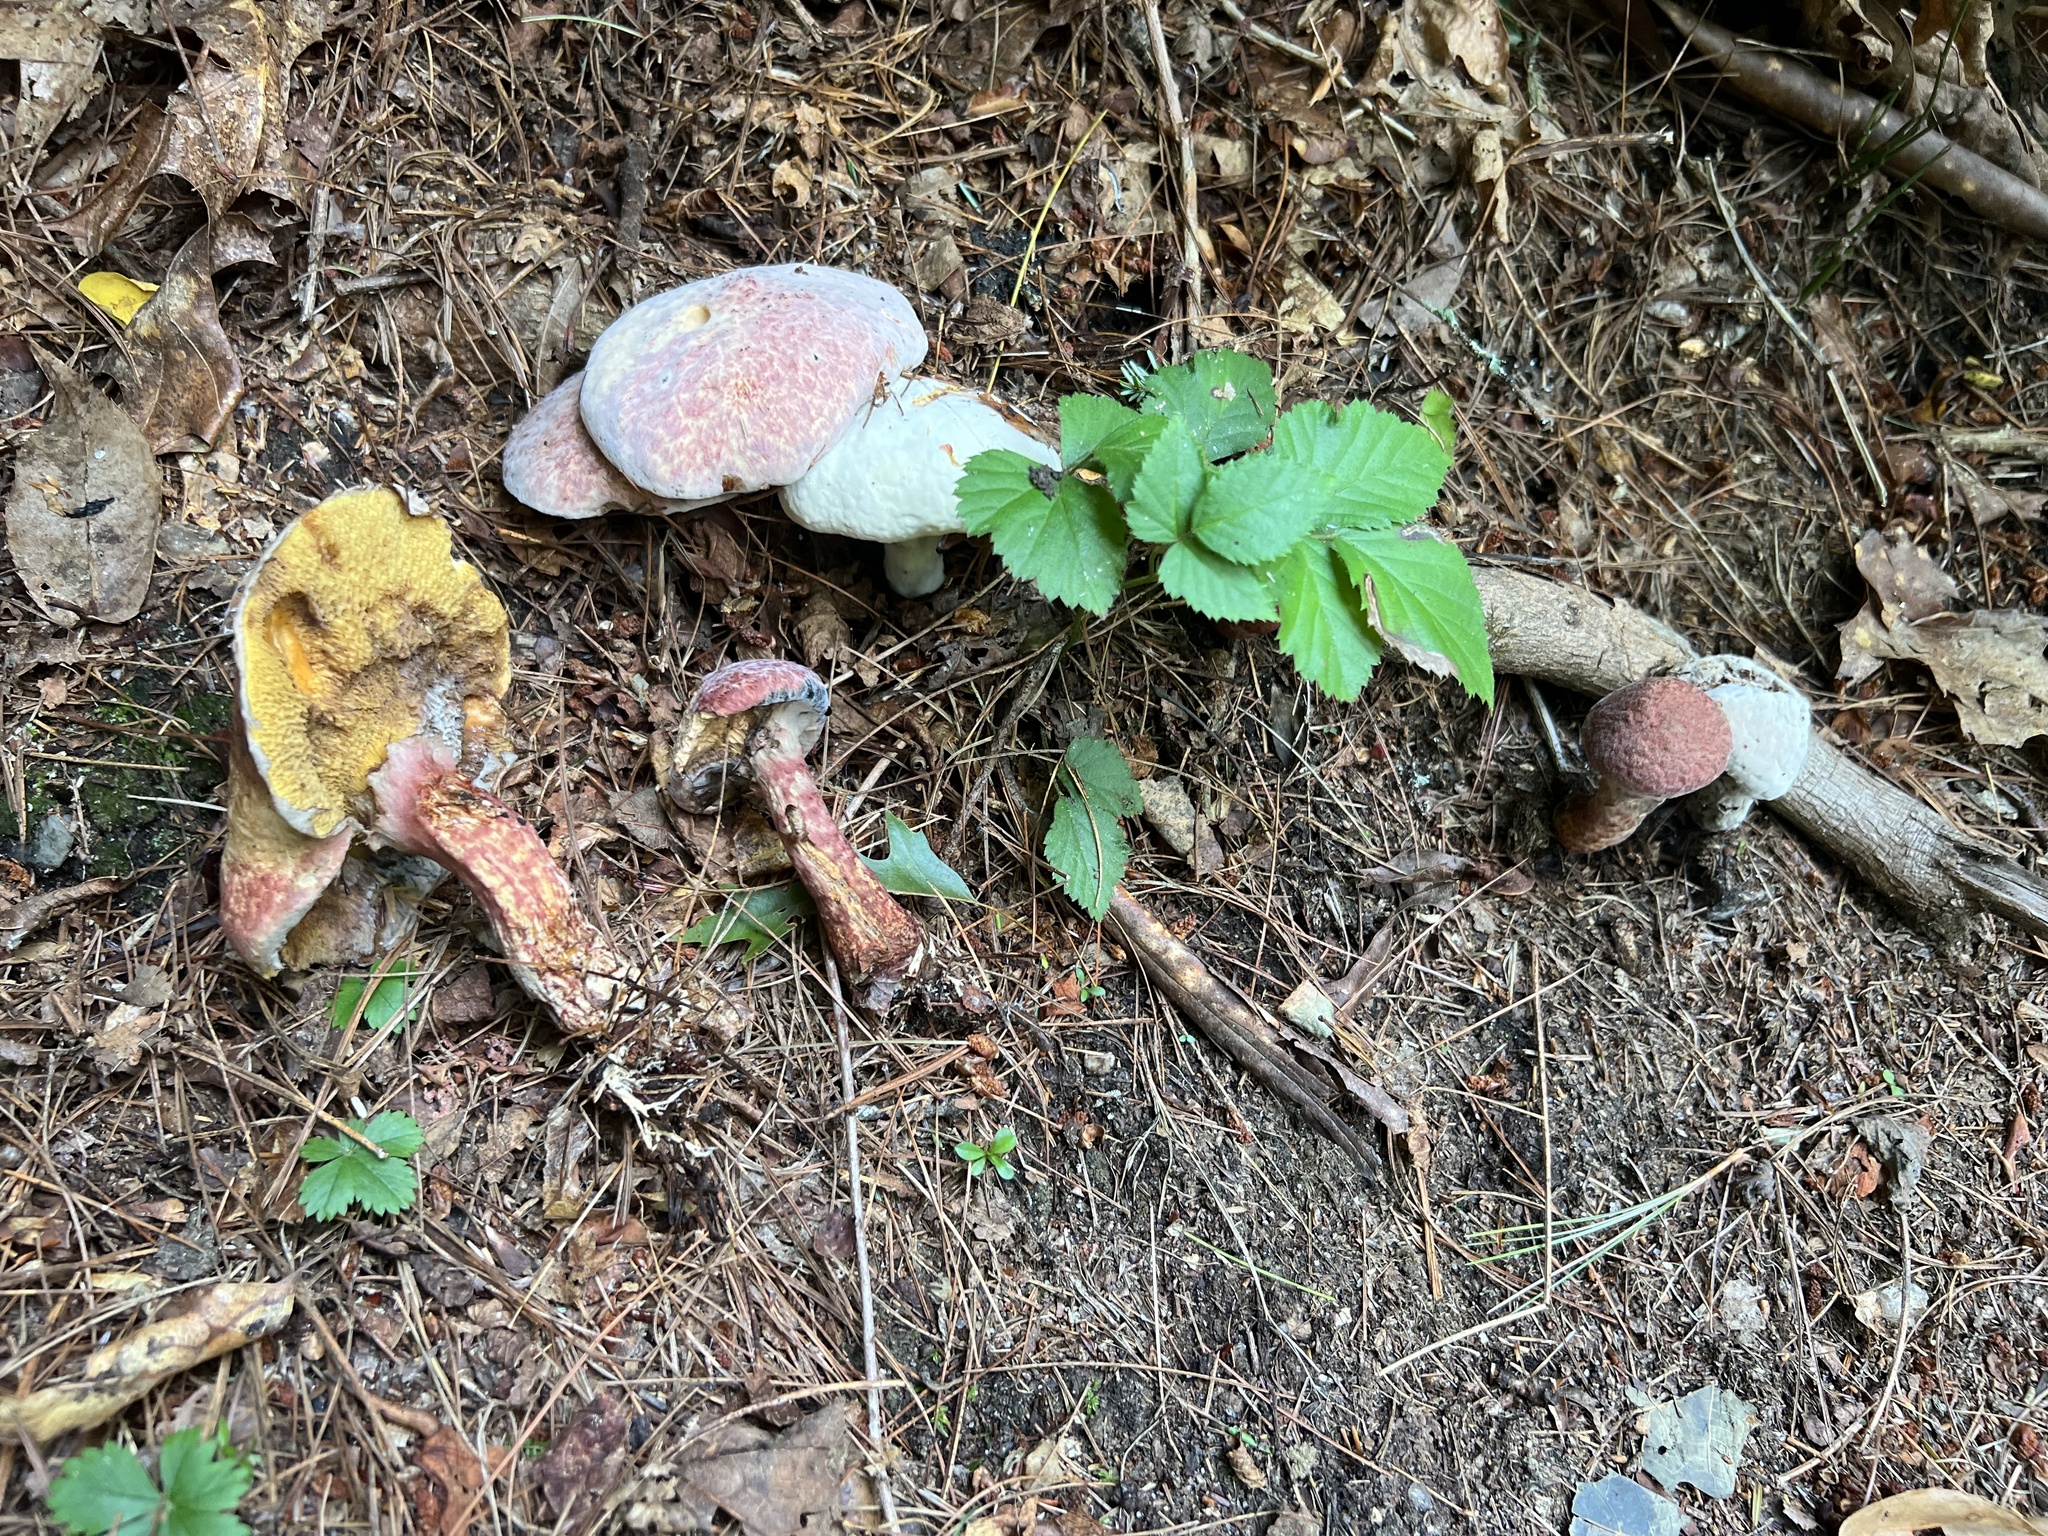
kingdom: Fungi
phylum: Ascomycota
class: Sordariomycetes
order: Hypocreales
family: Hypocreaceae
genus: Hypomyces
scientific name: Hypomyces completus
